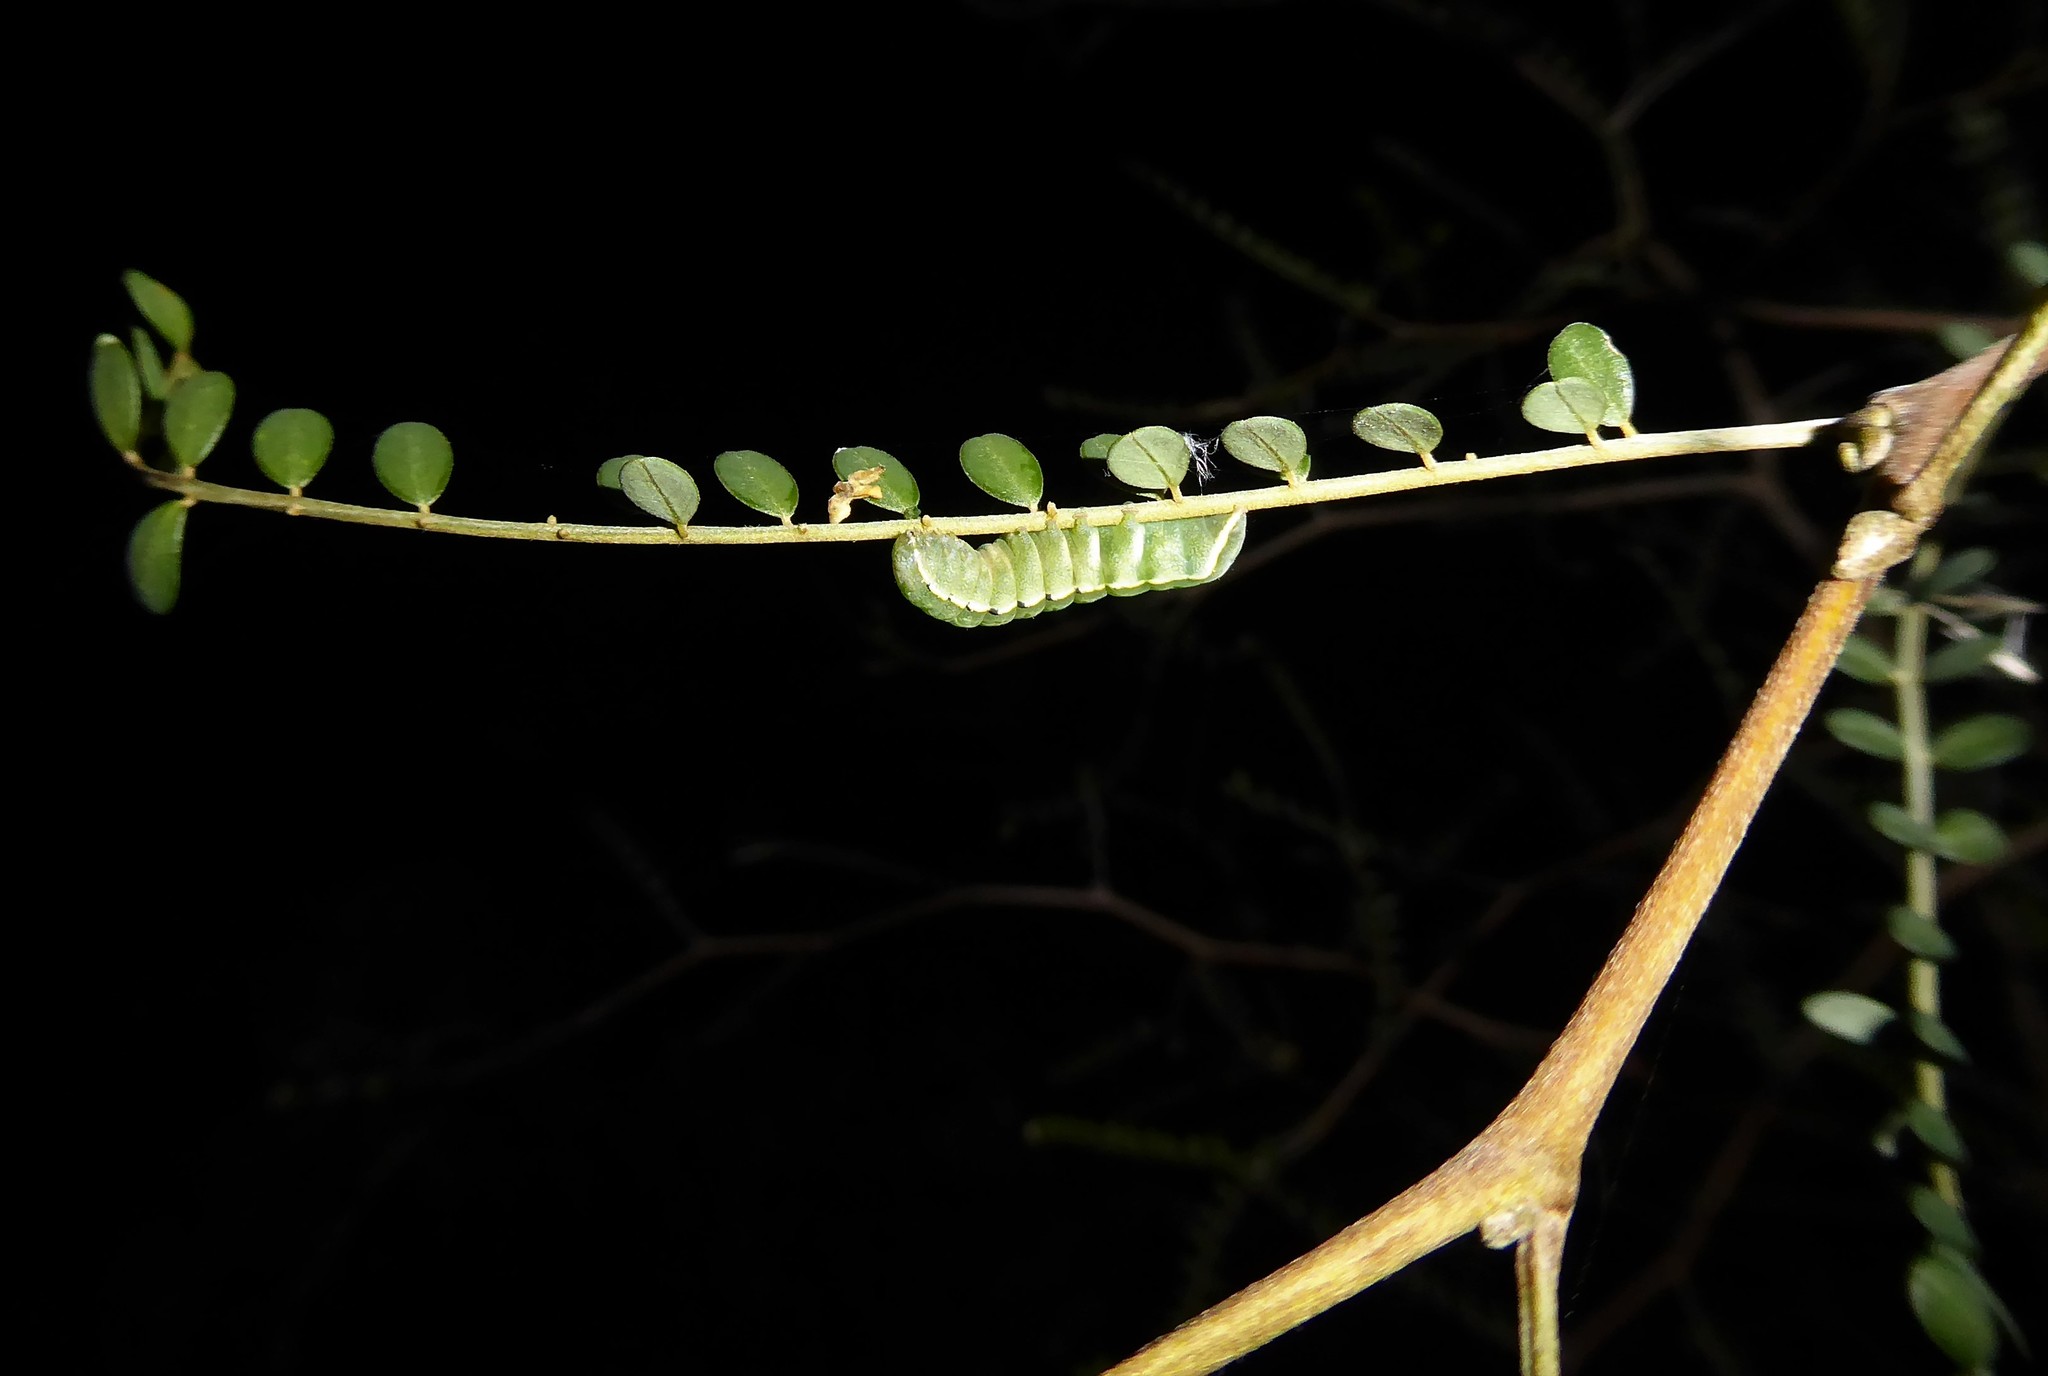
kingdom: Animalia
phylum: Arthropoda
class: Insecta
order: Lepidoptera
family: Noctuidae
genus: Meterana
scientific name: Meterana decorata
